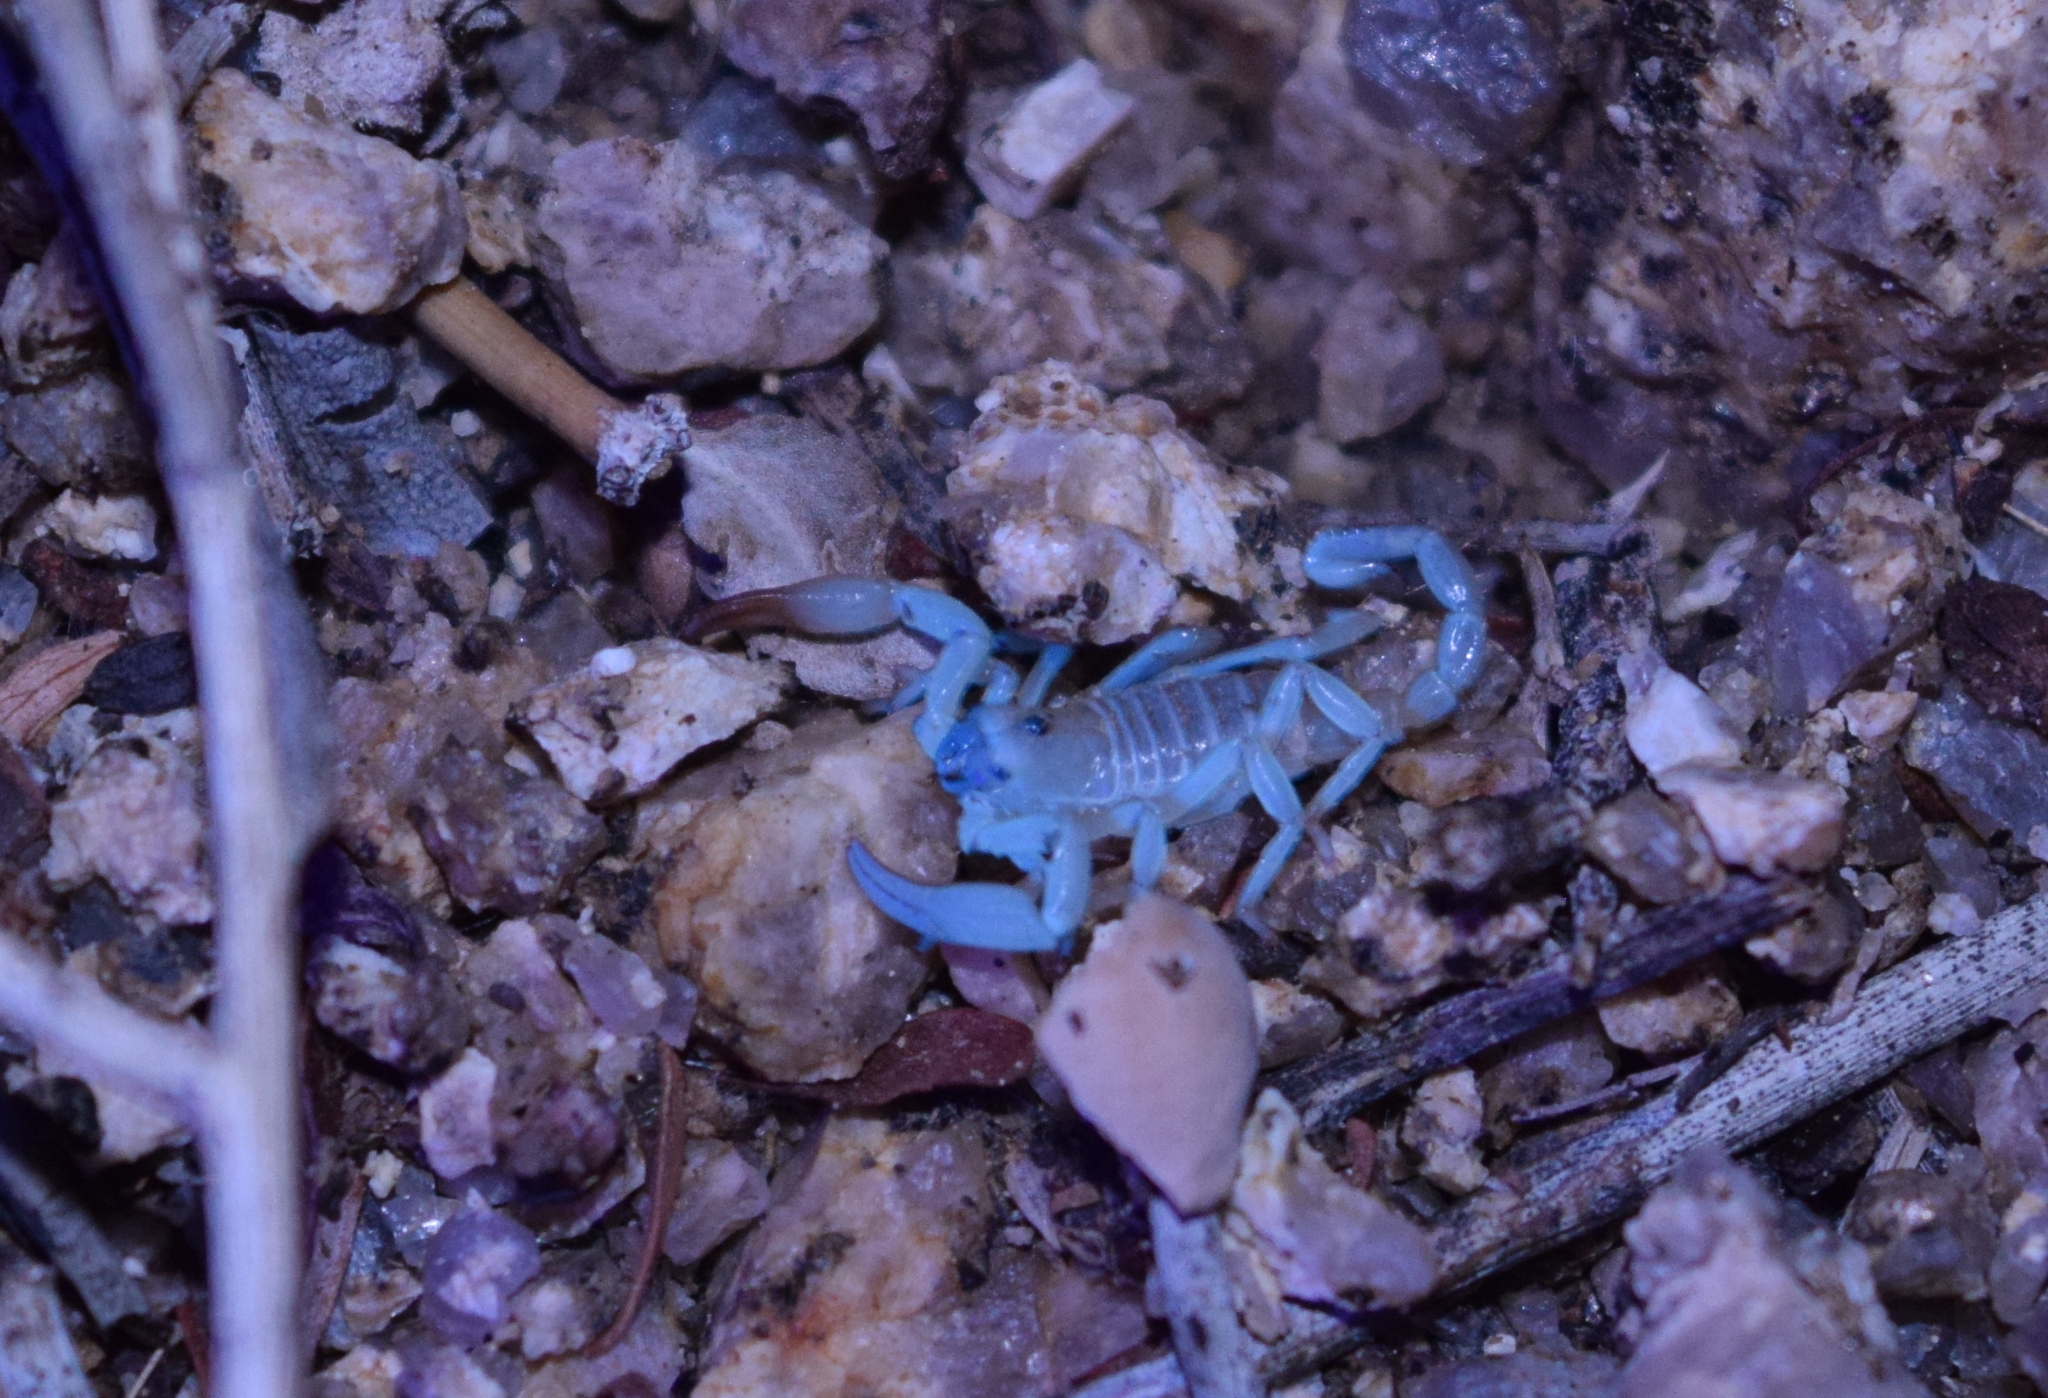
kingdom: Animalia
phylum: Arthropoda
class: Arachnida
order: Scorpiones
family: Chactidae
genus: Anuroctonus
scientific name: Anuroctonus pococki
